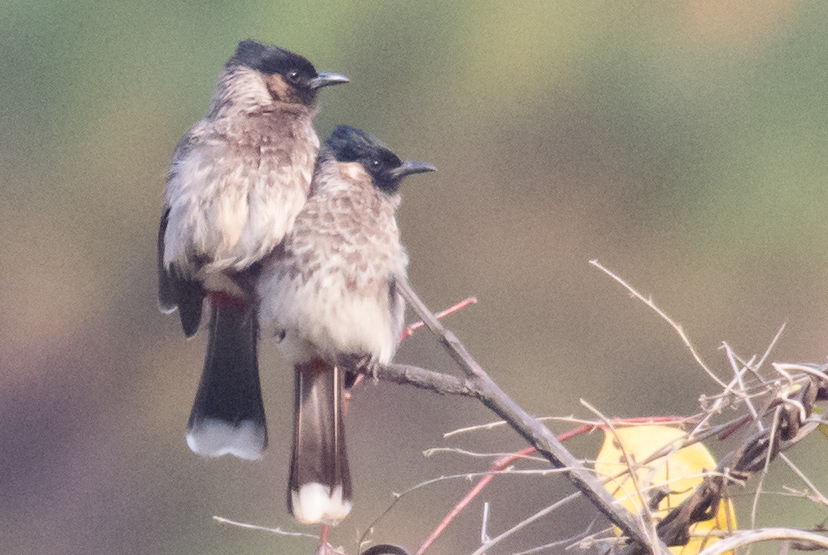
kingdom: Animalia
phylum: Chordata
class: Aves
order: Passeriformes
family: Pycnonotidae
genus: Pycnonotus
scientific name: Pycnonotus cafer
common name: Red-vented bulbul
